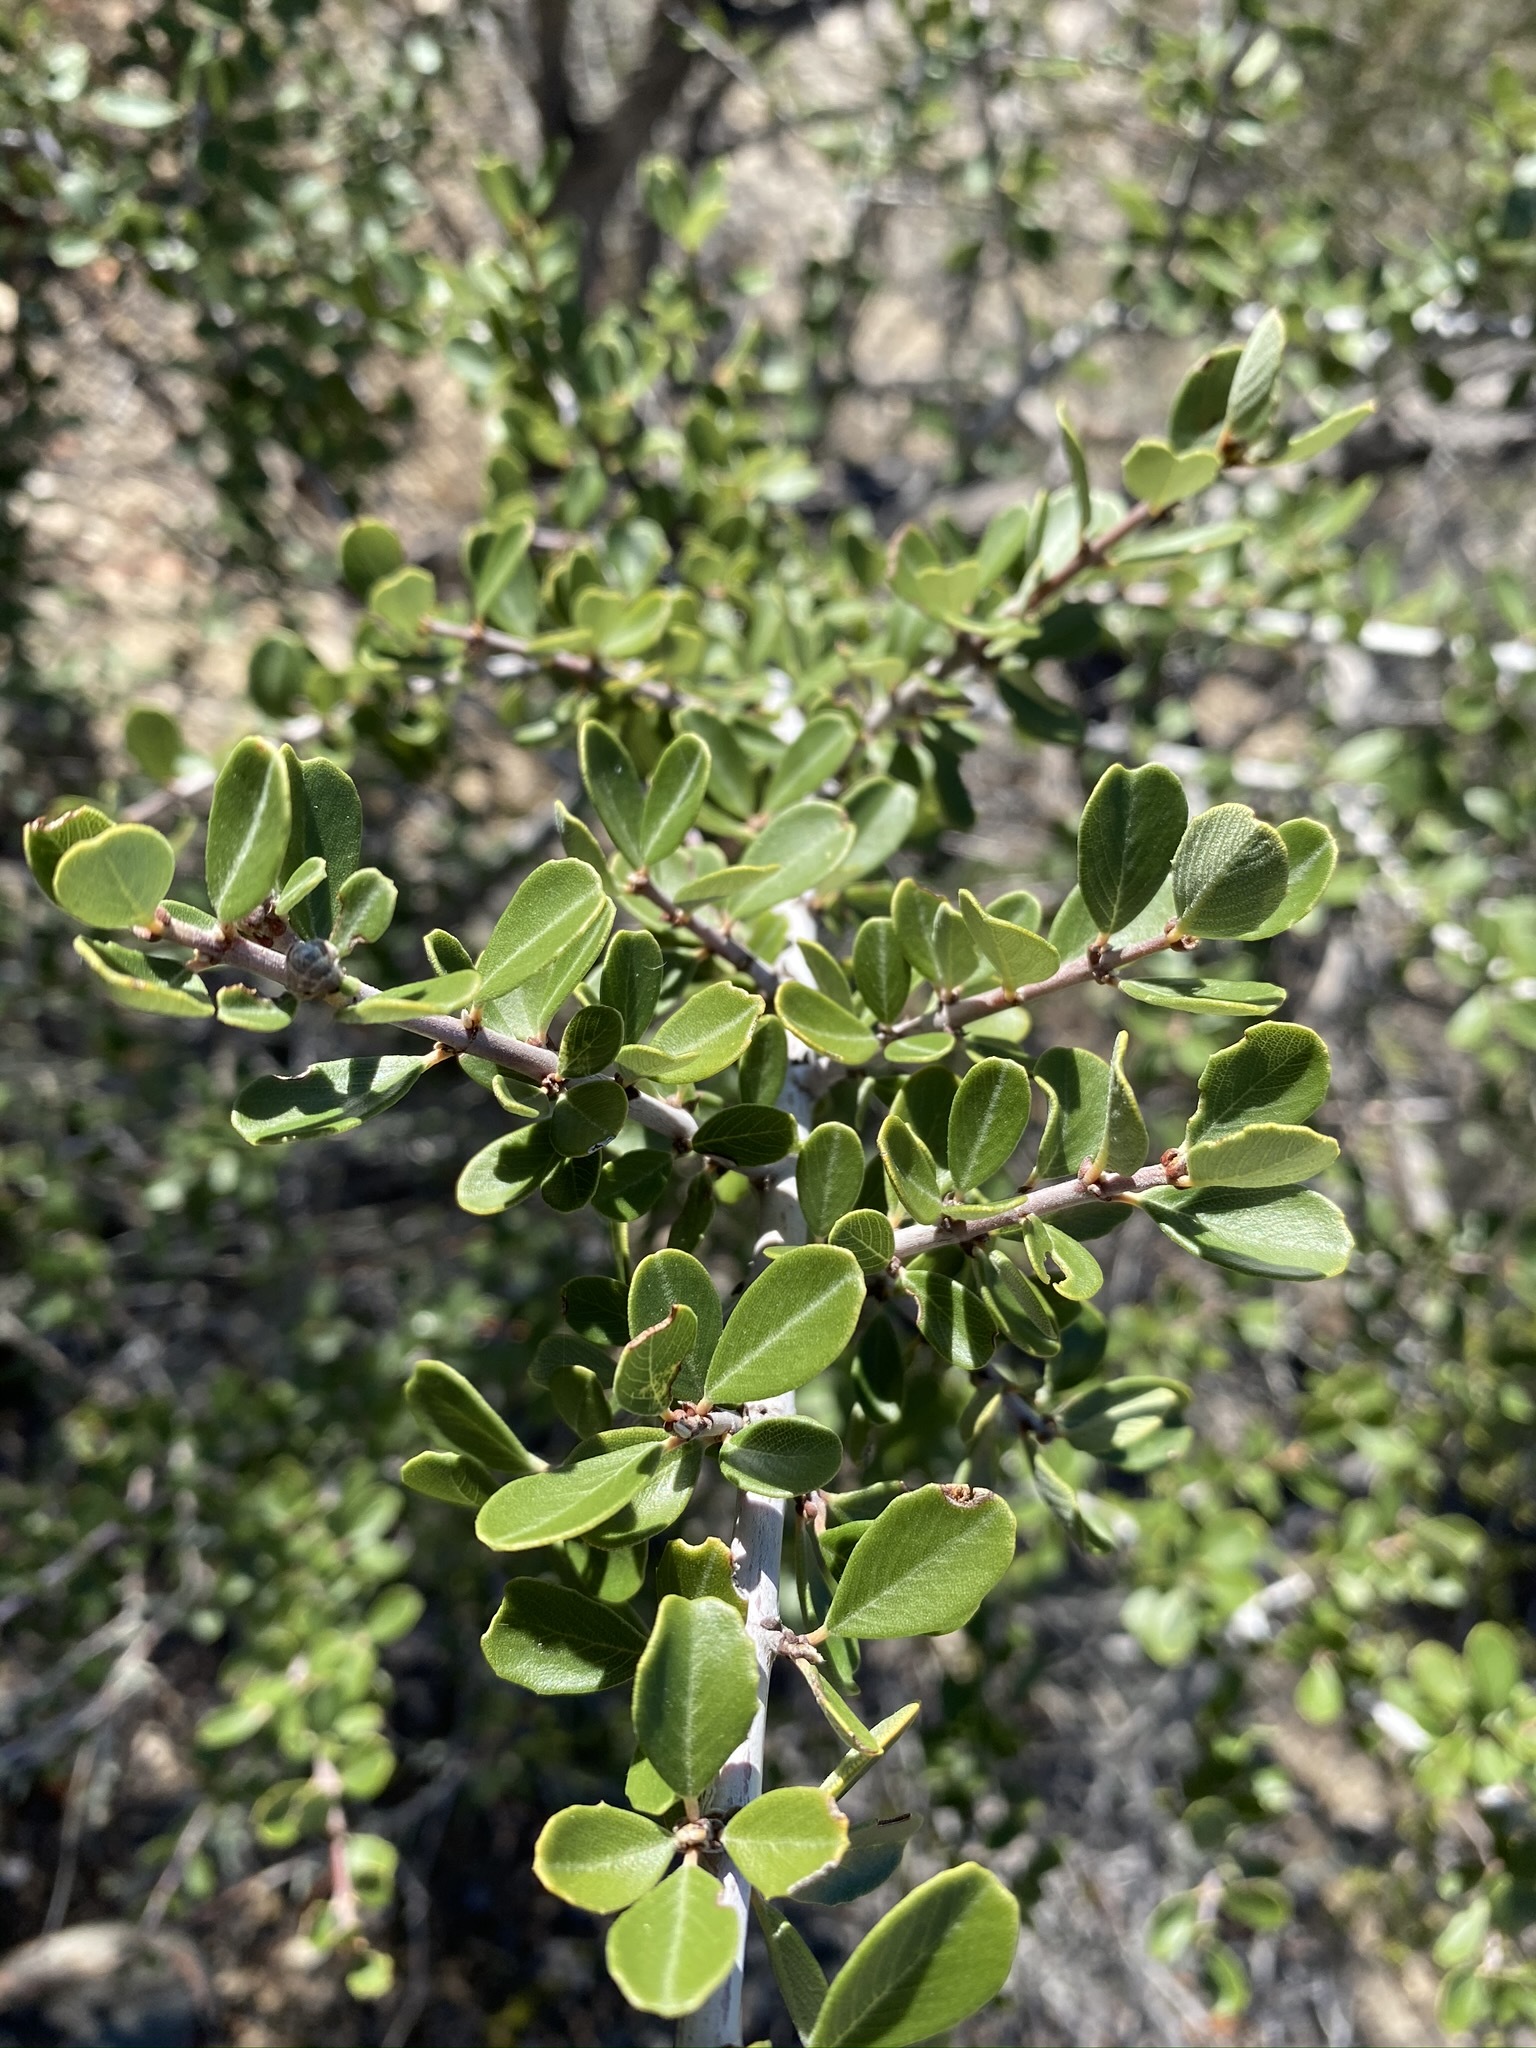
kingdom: Plantae
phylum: Tracheophyta
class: Magnoliopsida
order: Rosales
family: Rhamnaceae
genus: Ceanothus
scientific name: Ceanothus cuneatus
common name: Cuneate ceanothus
